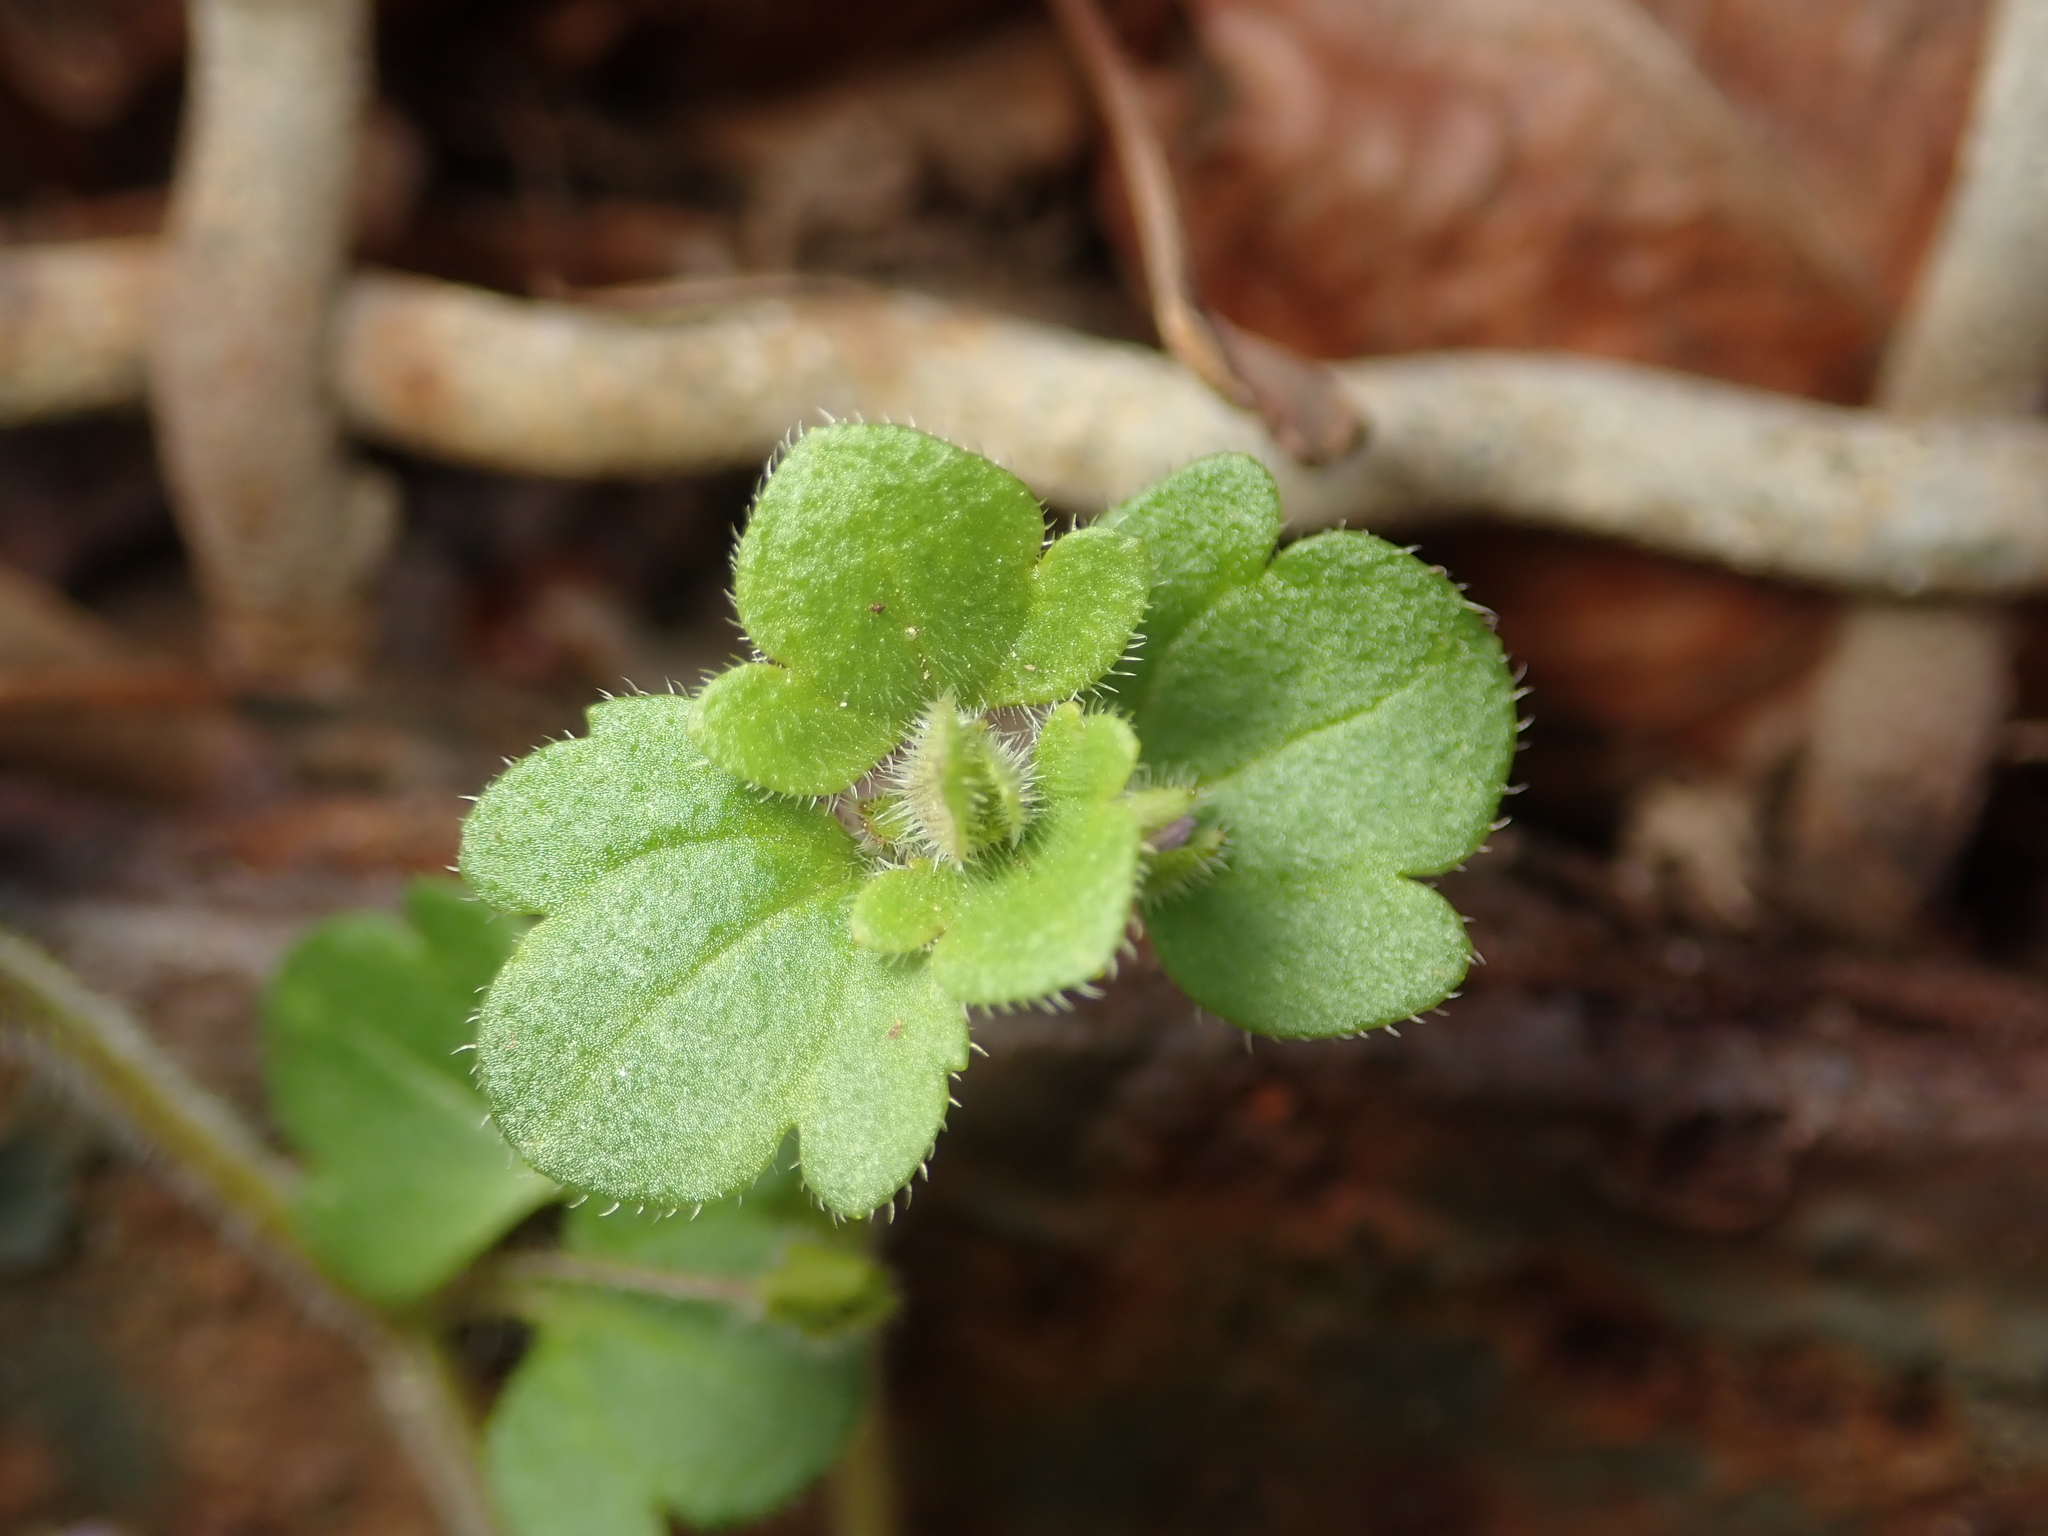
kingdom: Plantae
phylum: Tracheophyta
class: Magnoliopsida
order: Lamiales
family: Plantaginaceae
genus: Veronica
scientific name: Veronica hederifolia
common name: Ivy-leaved speedwell
